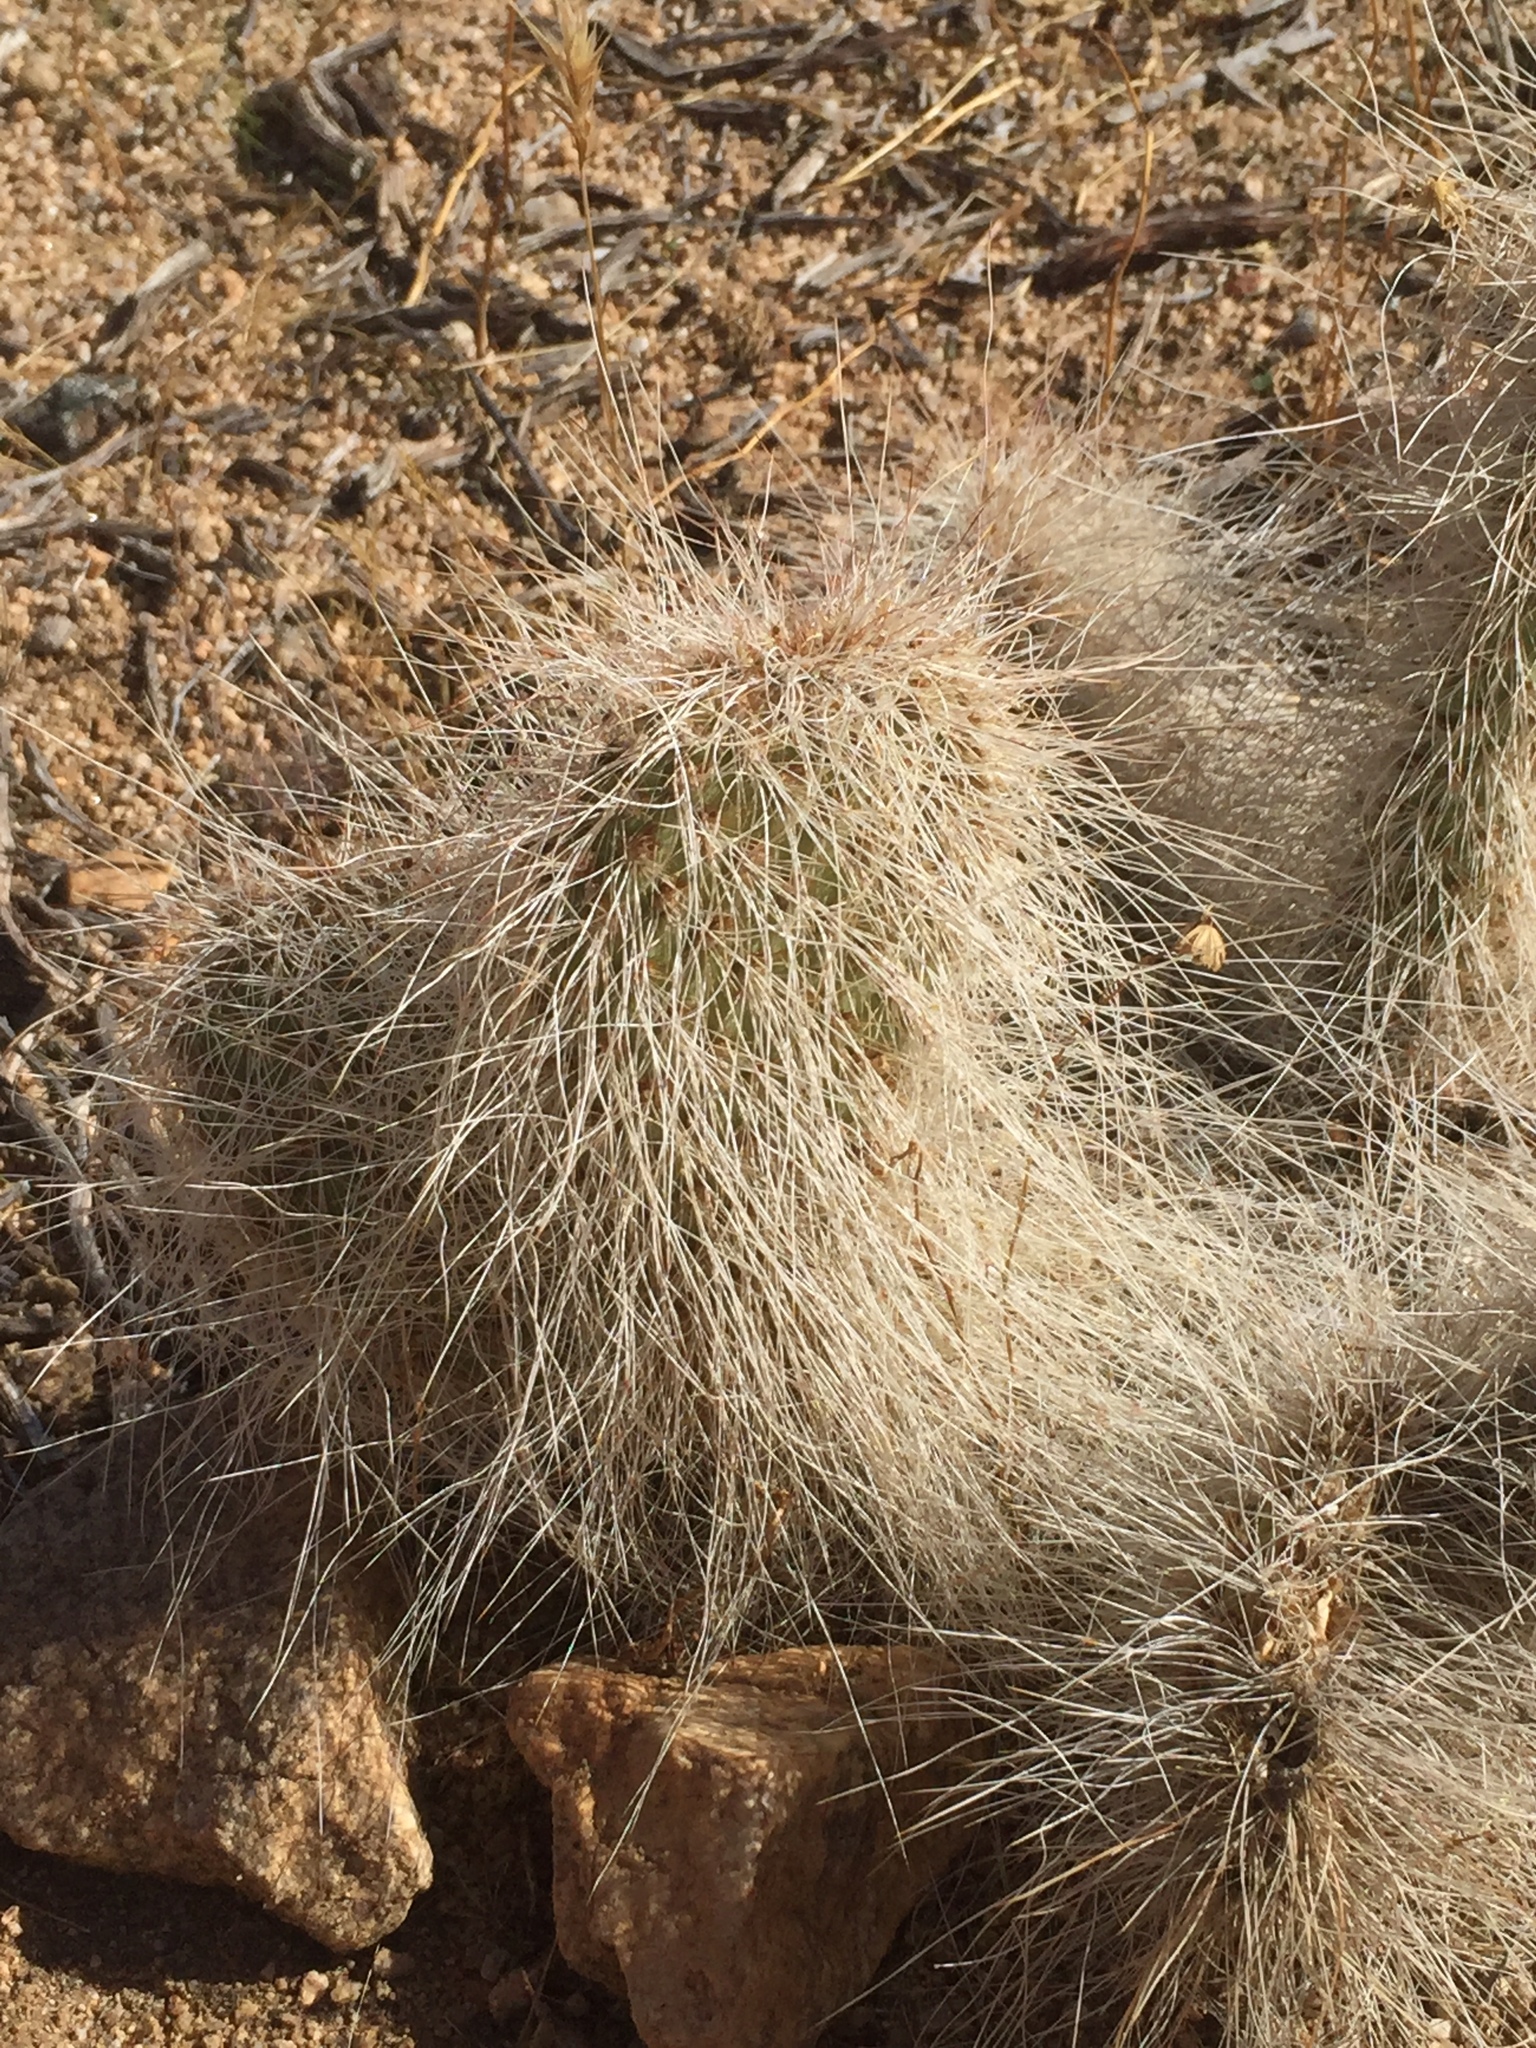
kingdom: Plantae
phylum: Tracheophyta
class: Magnoliopsida
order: Caryophyllales
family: Cactaceae
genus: Opuntia
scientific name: Opuntia polyacantha
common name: Plains prickly-pear
